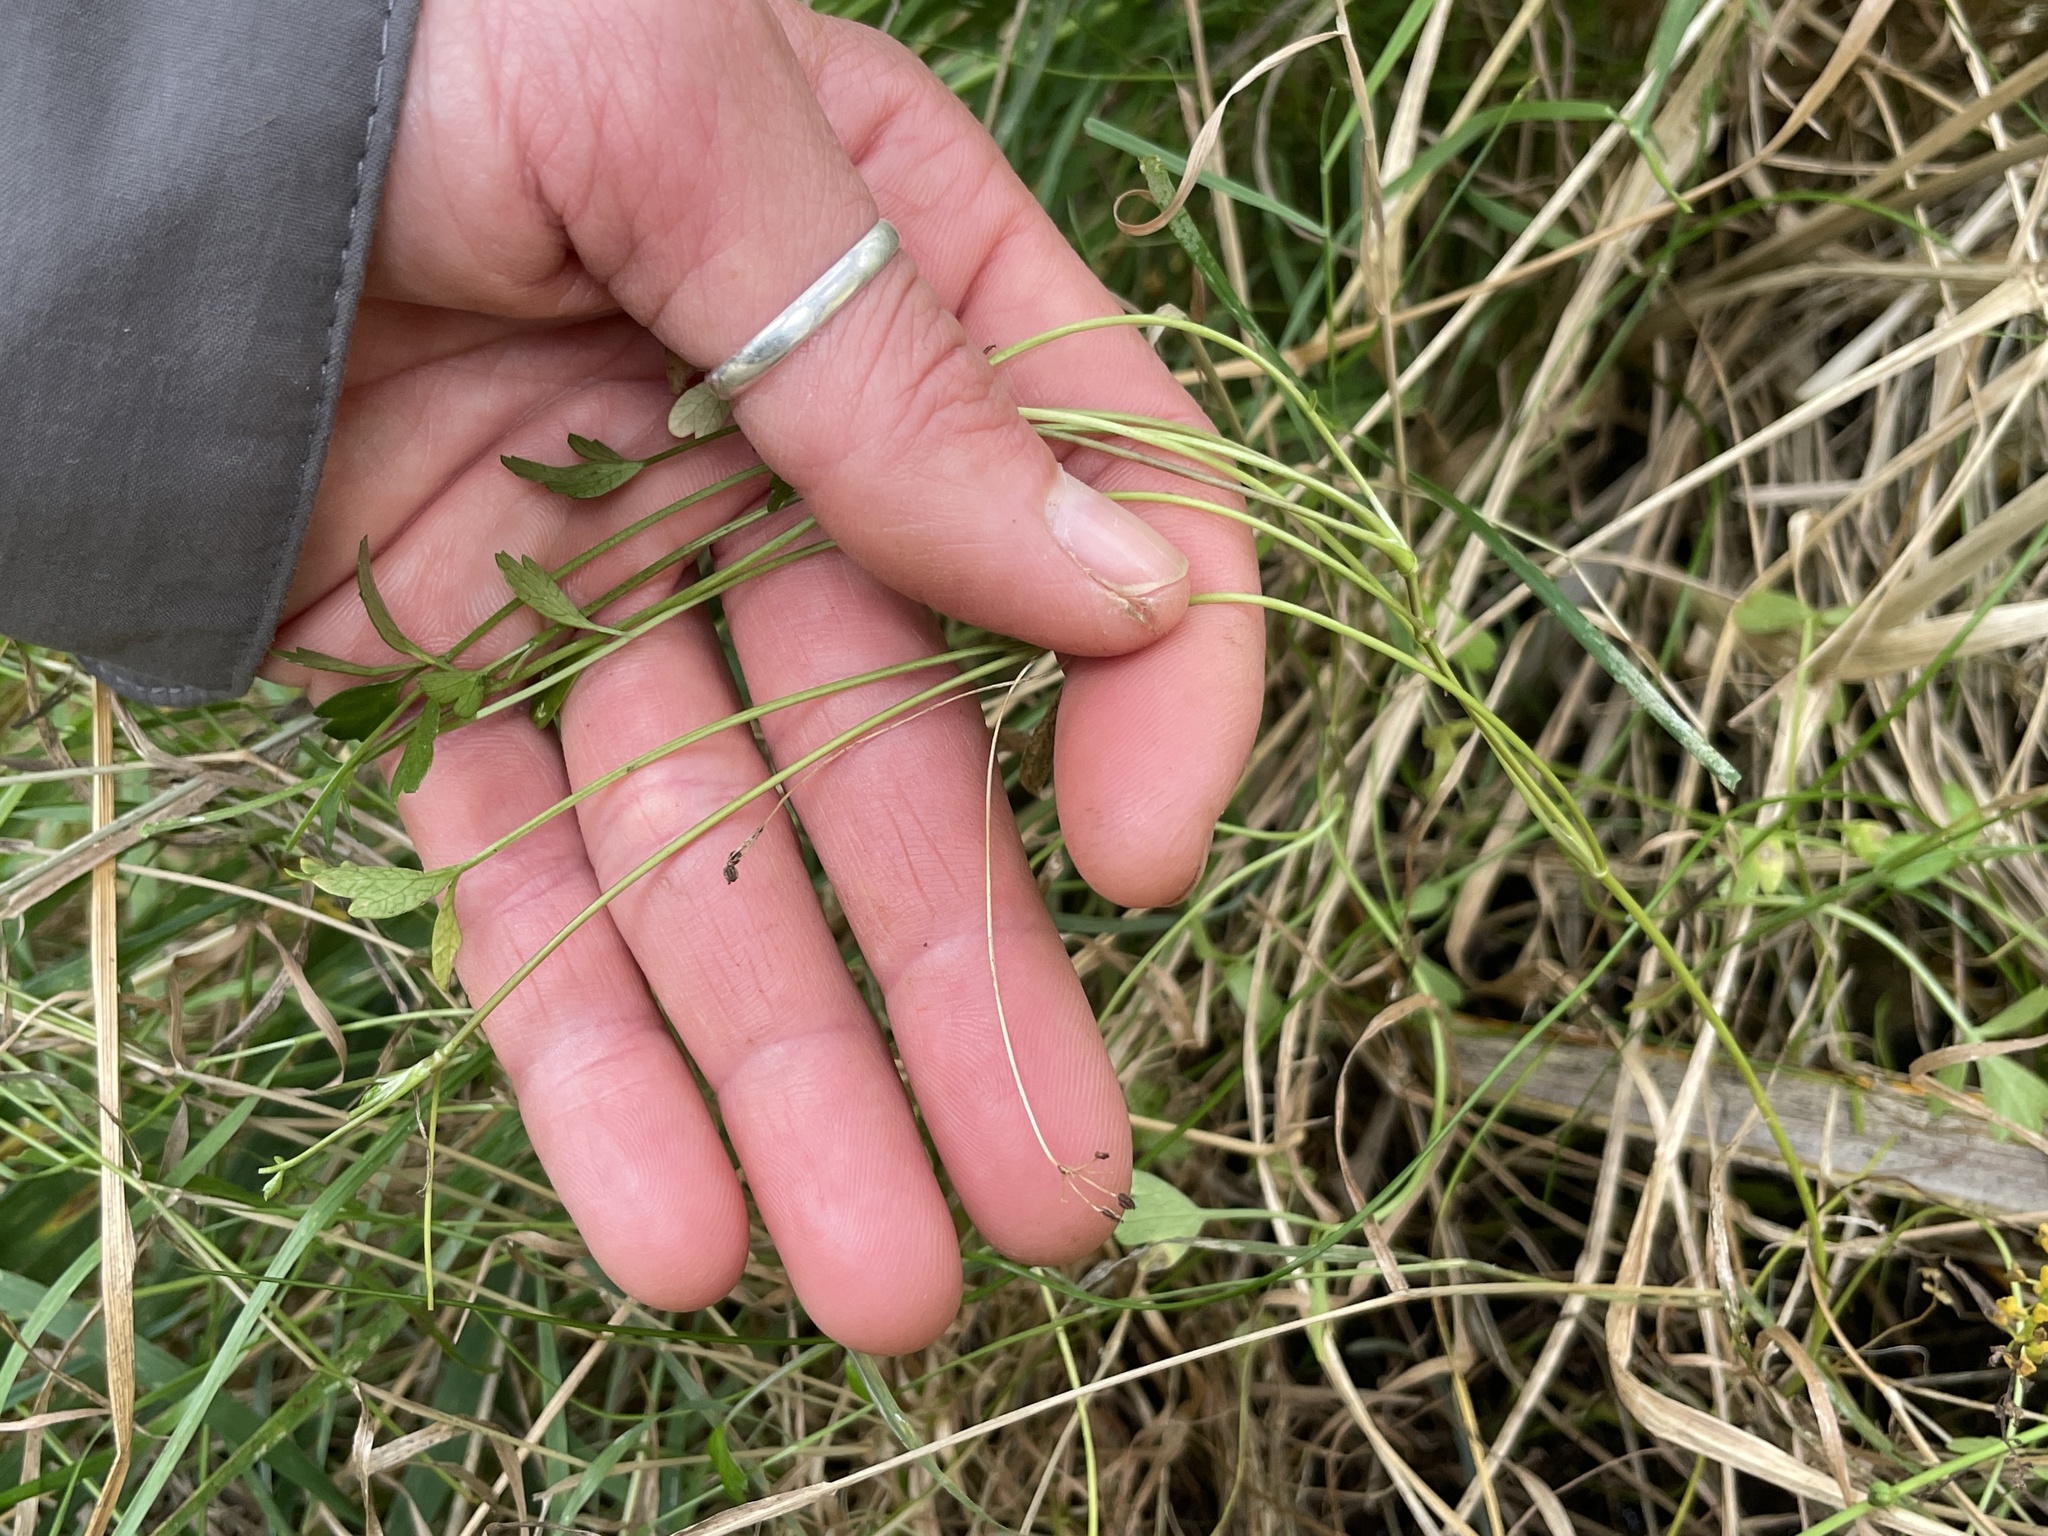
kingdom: Plantae
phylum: Tracheophyta
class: Magnoliopsida
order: Apiales
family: Apiaceae
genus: Apium
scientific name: Apium prostratum
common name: Prostrate marshwort
